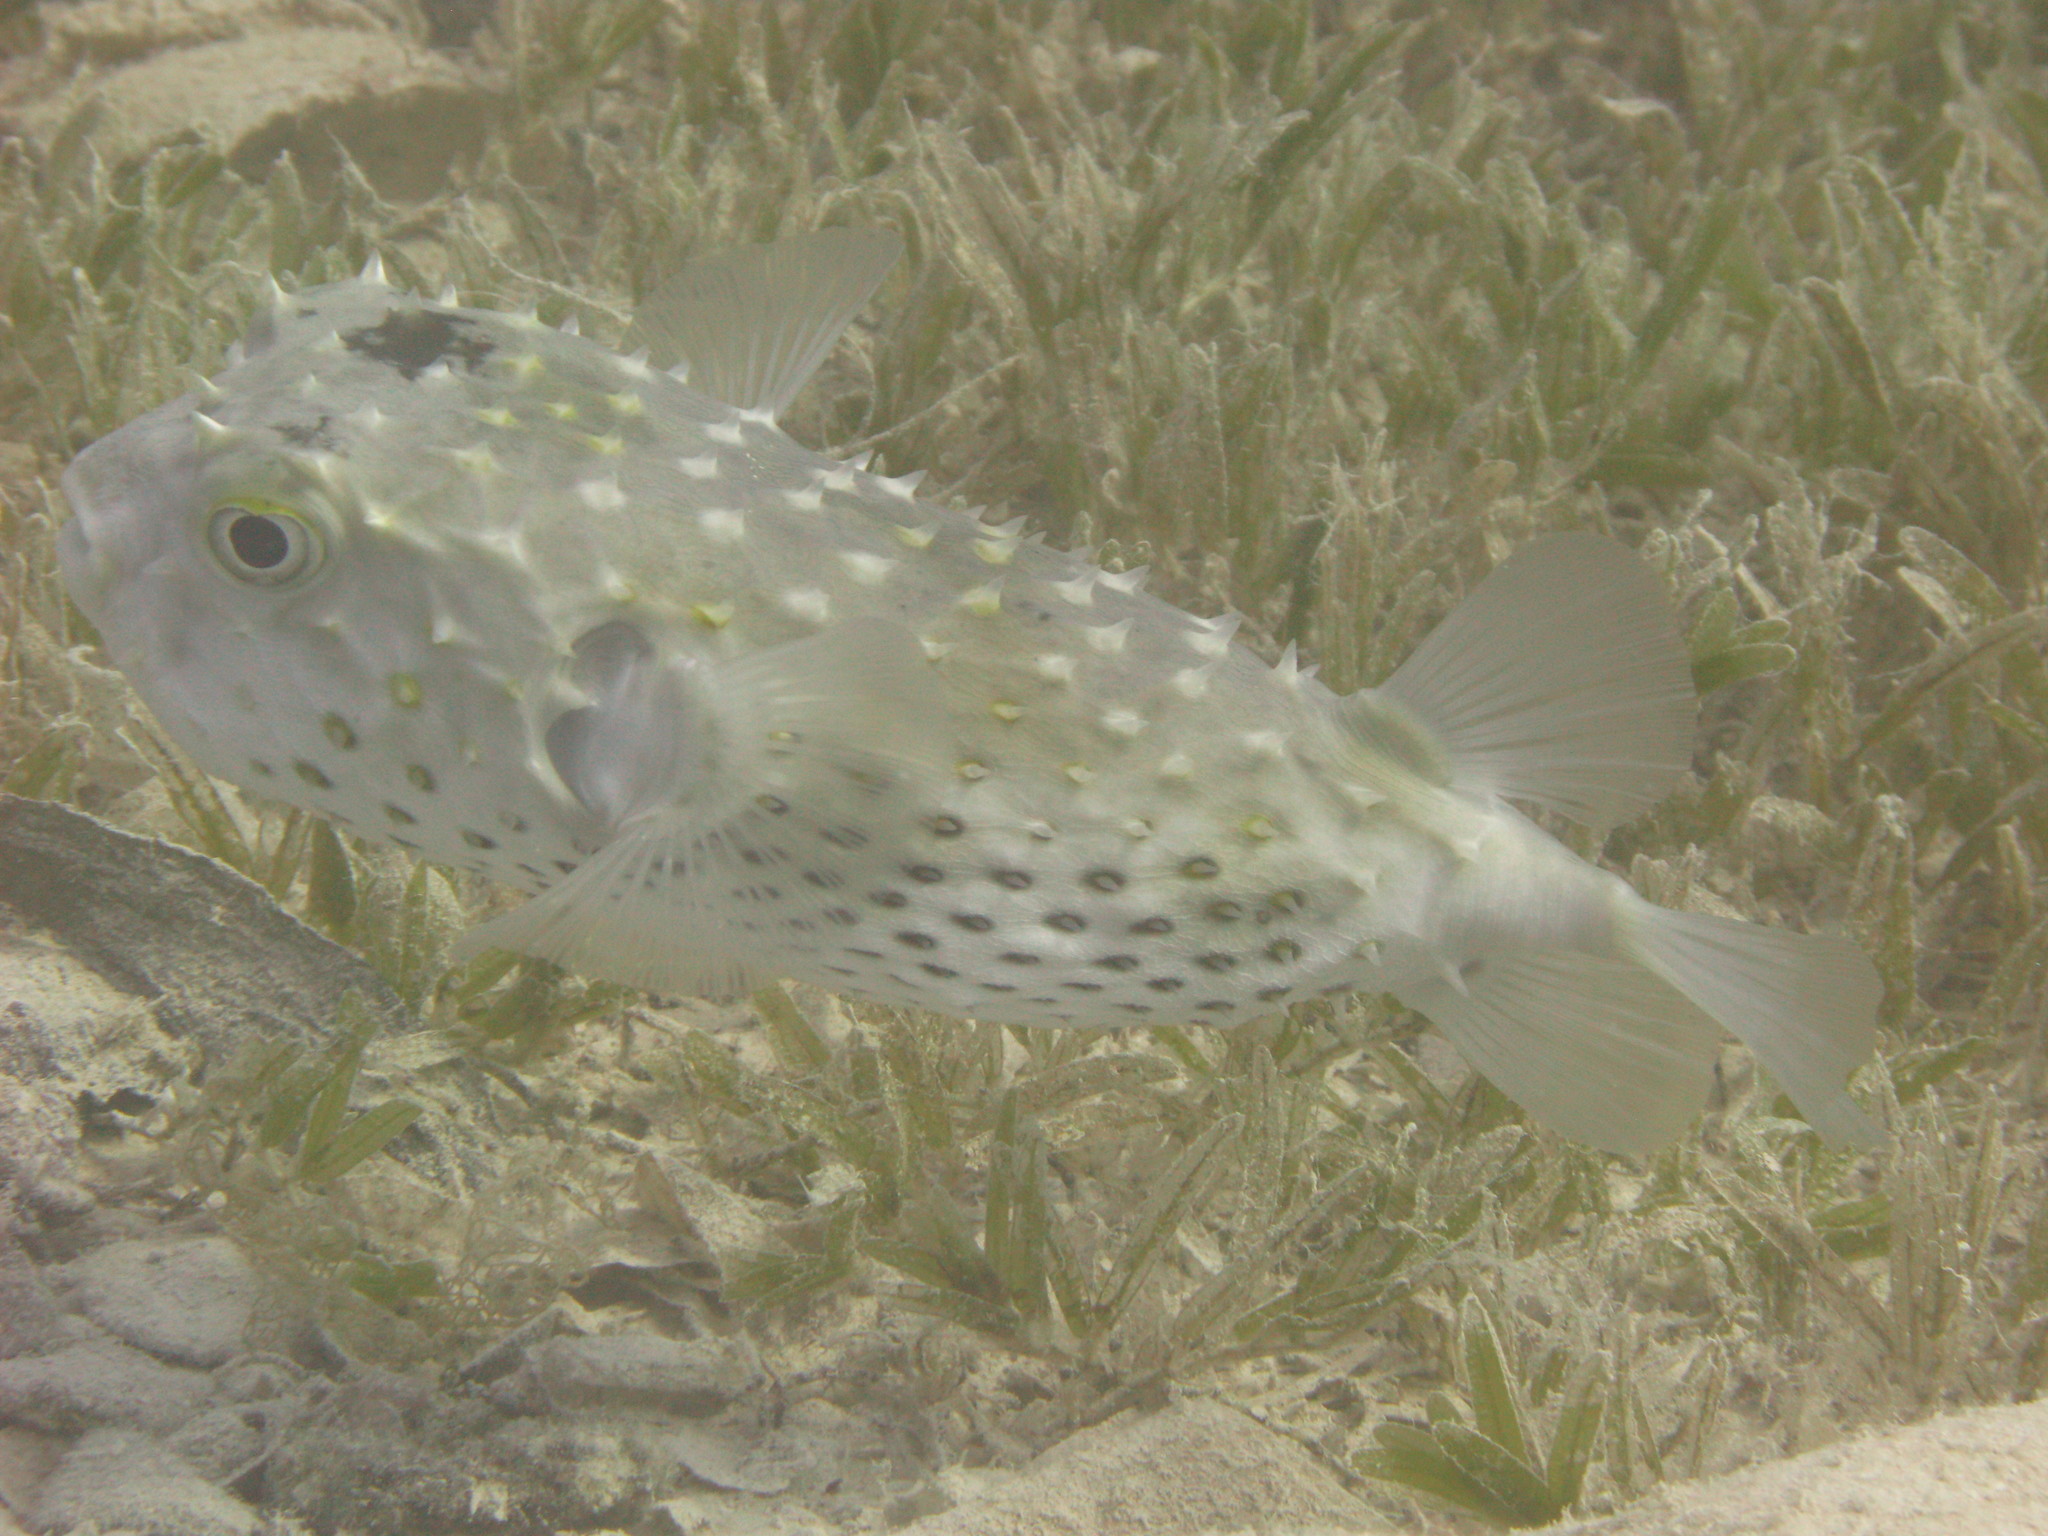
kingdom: Animalia
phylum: Chordata
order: Tetraodontiformes
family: Diodontidae
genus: Cyclichthys
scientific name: Cyclichthys spilostylus
